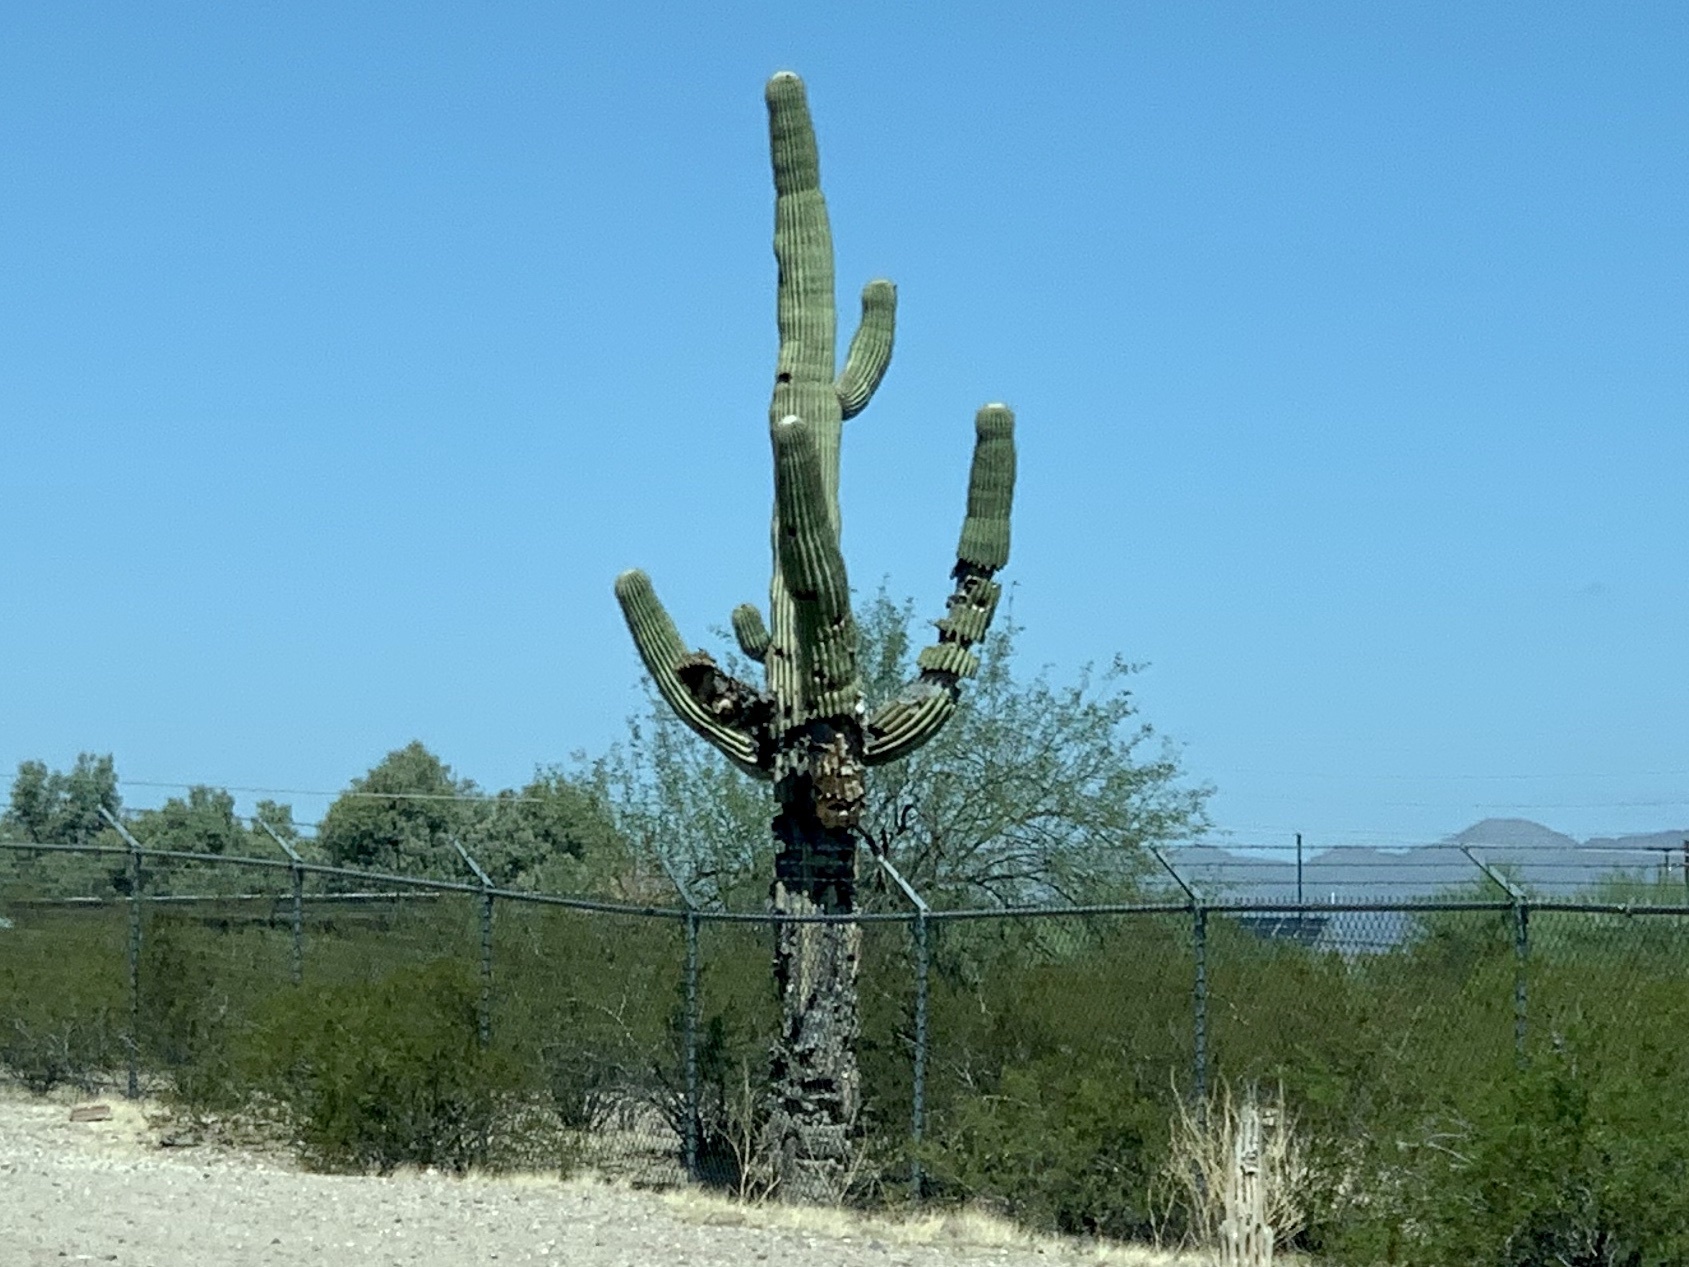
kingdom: Plantae
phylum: Tracheophyta
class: Magnoliopsida
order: Caryophyllales
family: Cactaceae
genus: Carnegiea
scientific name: Carnegiea gigantea
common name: Saguaro
